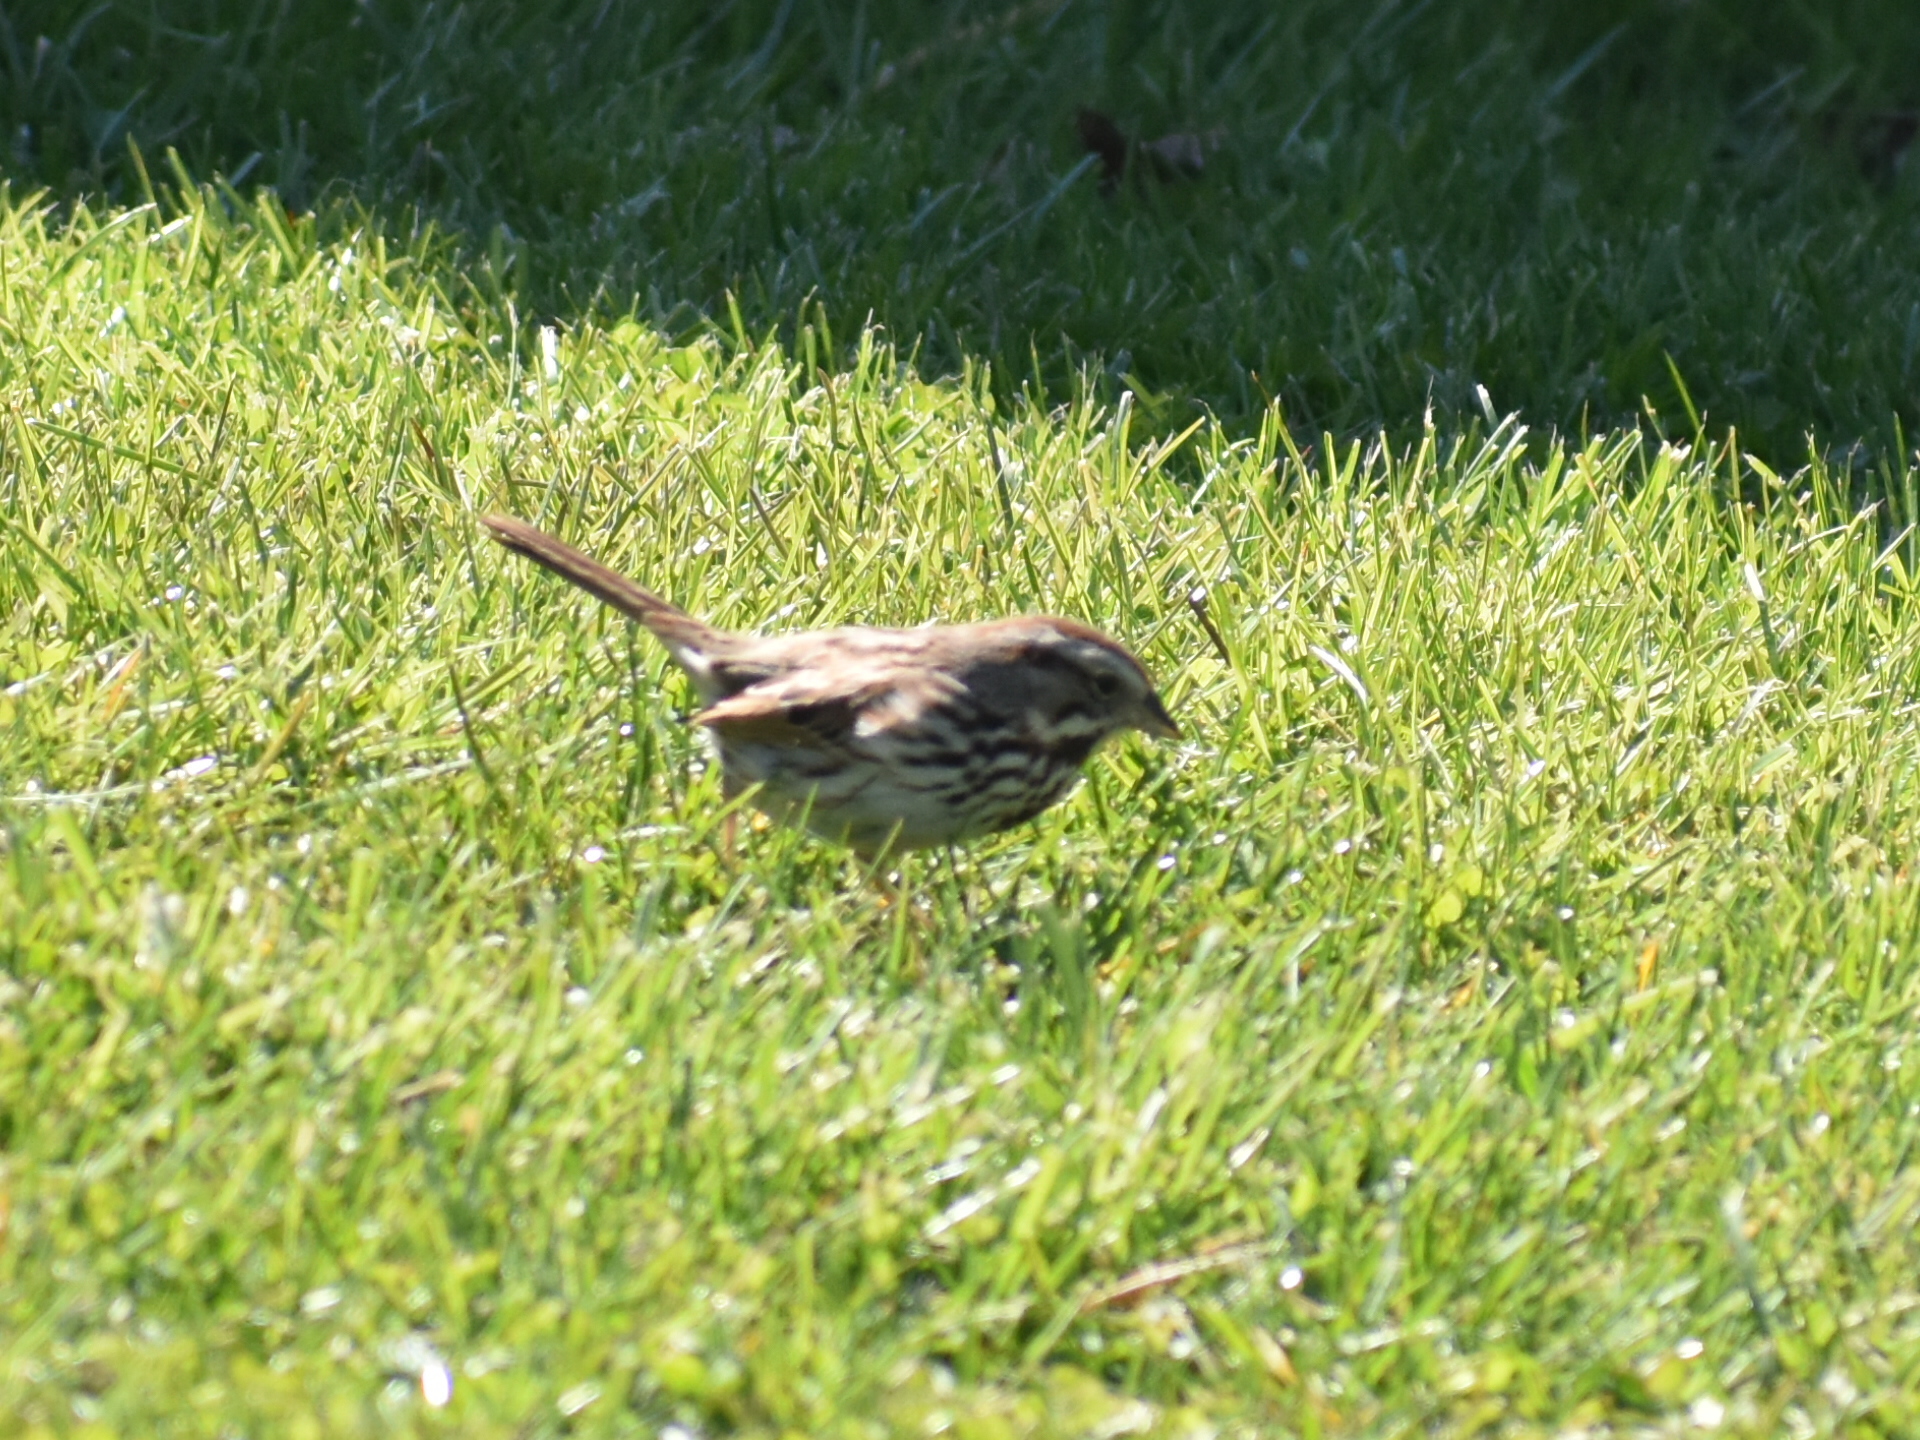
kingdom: Animalia
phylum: Chordata
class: Aves
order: Passeriformes
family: Passerellidae
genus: Melospiza
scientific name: Melospiza melodia
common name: Song sparrow
